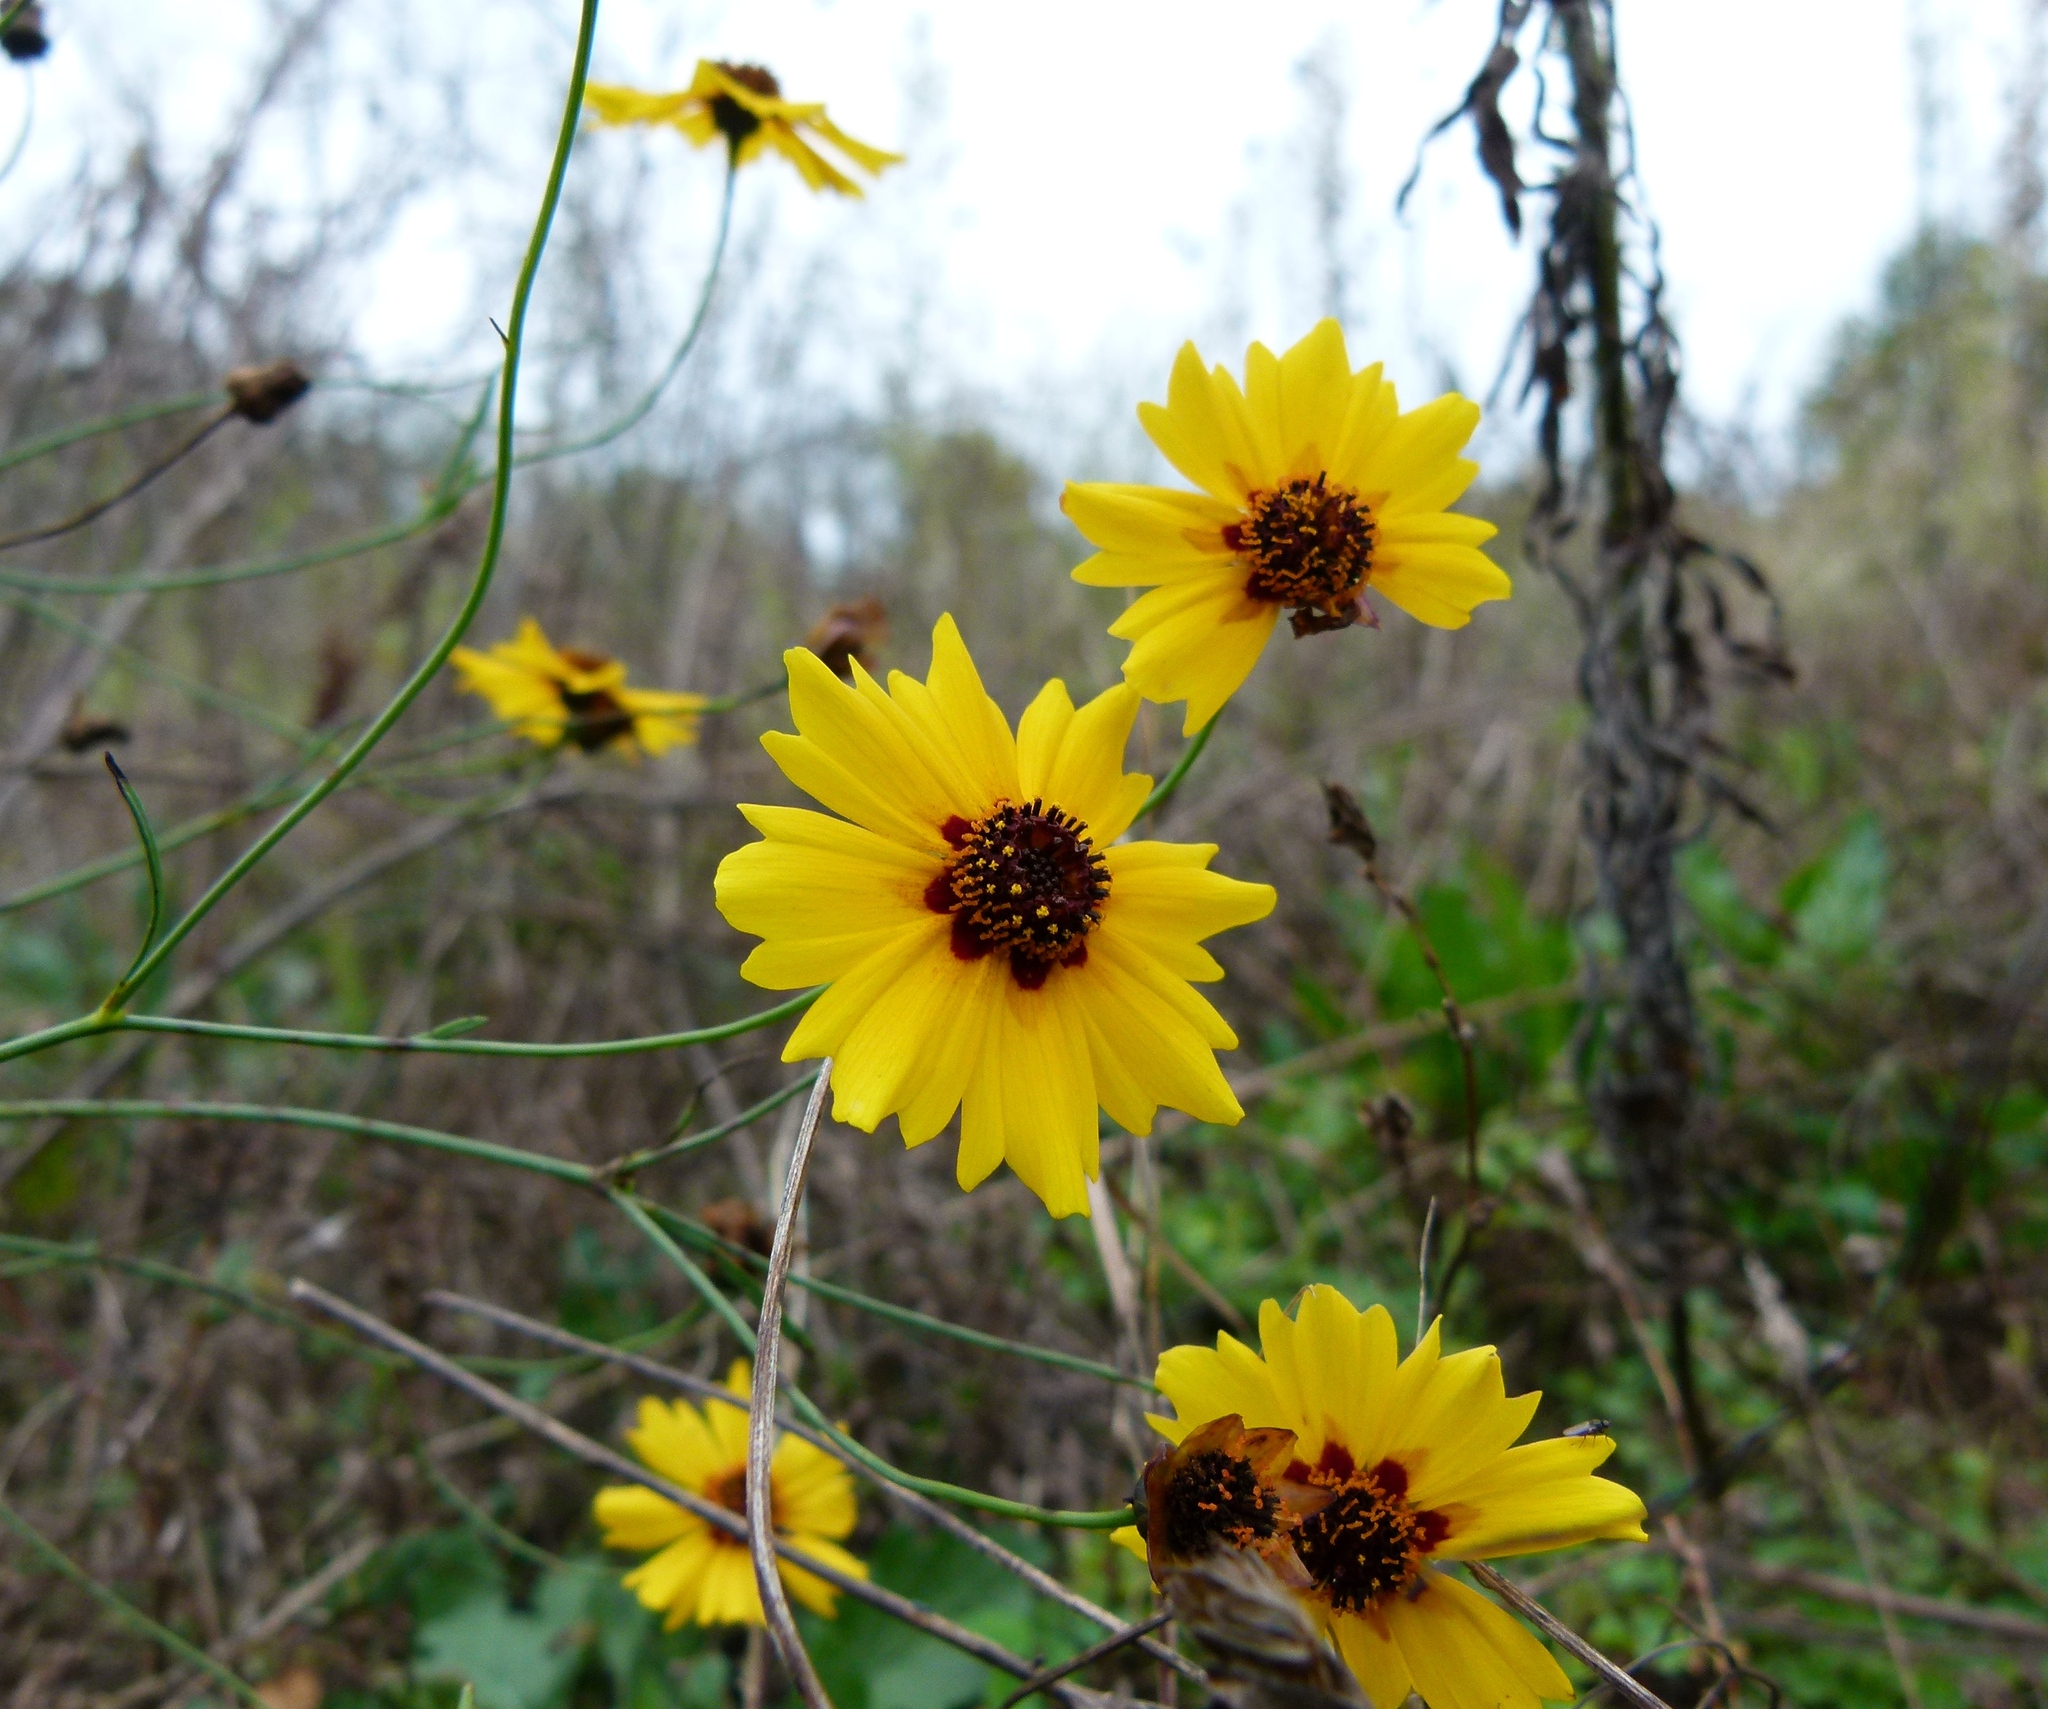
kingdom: Plantae
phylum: Tracheophyta
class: Magnoliopsida
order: Asterales
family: Asteraceae
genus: Coreopsis
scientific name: Coreopsis tinctoria
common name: Garden tickseed
